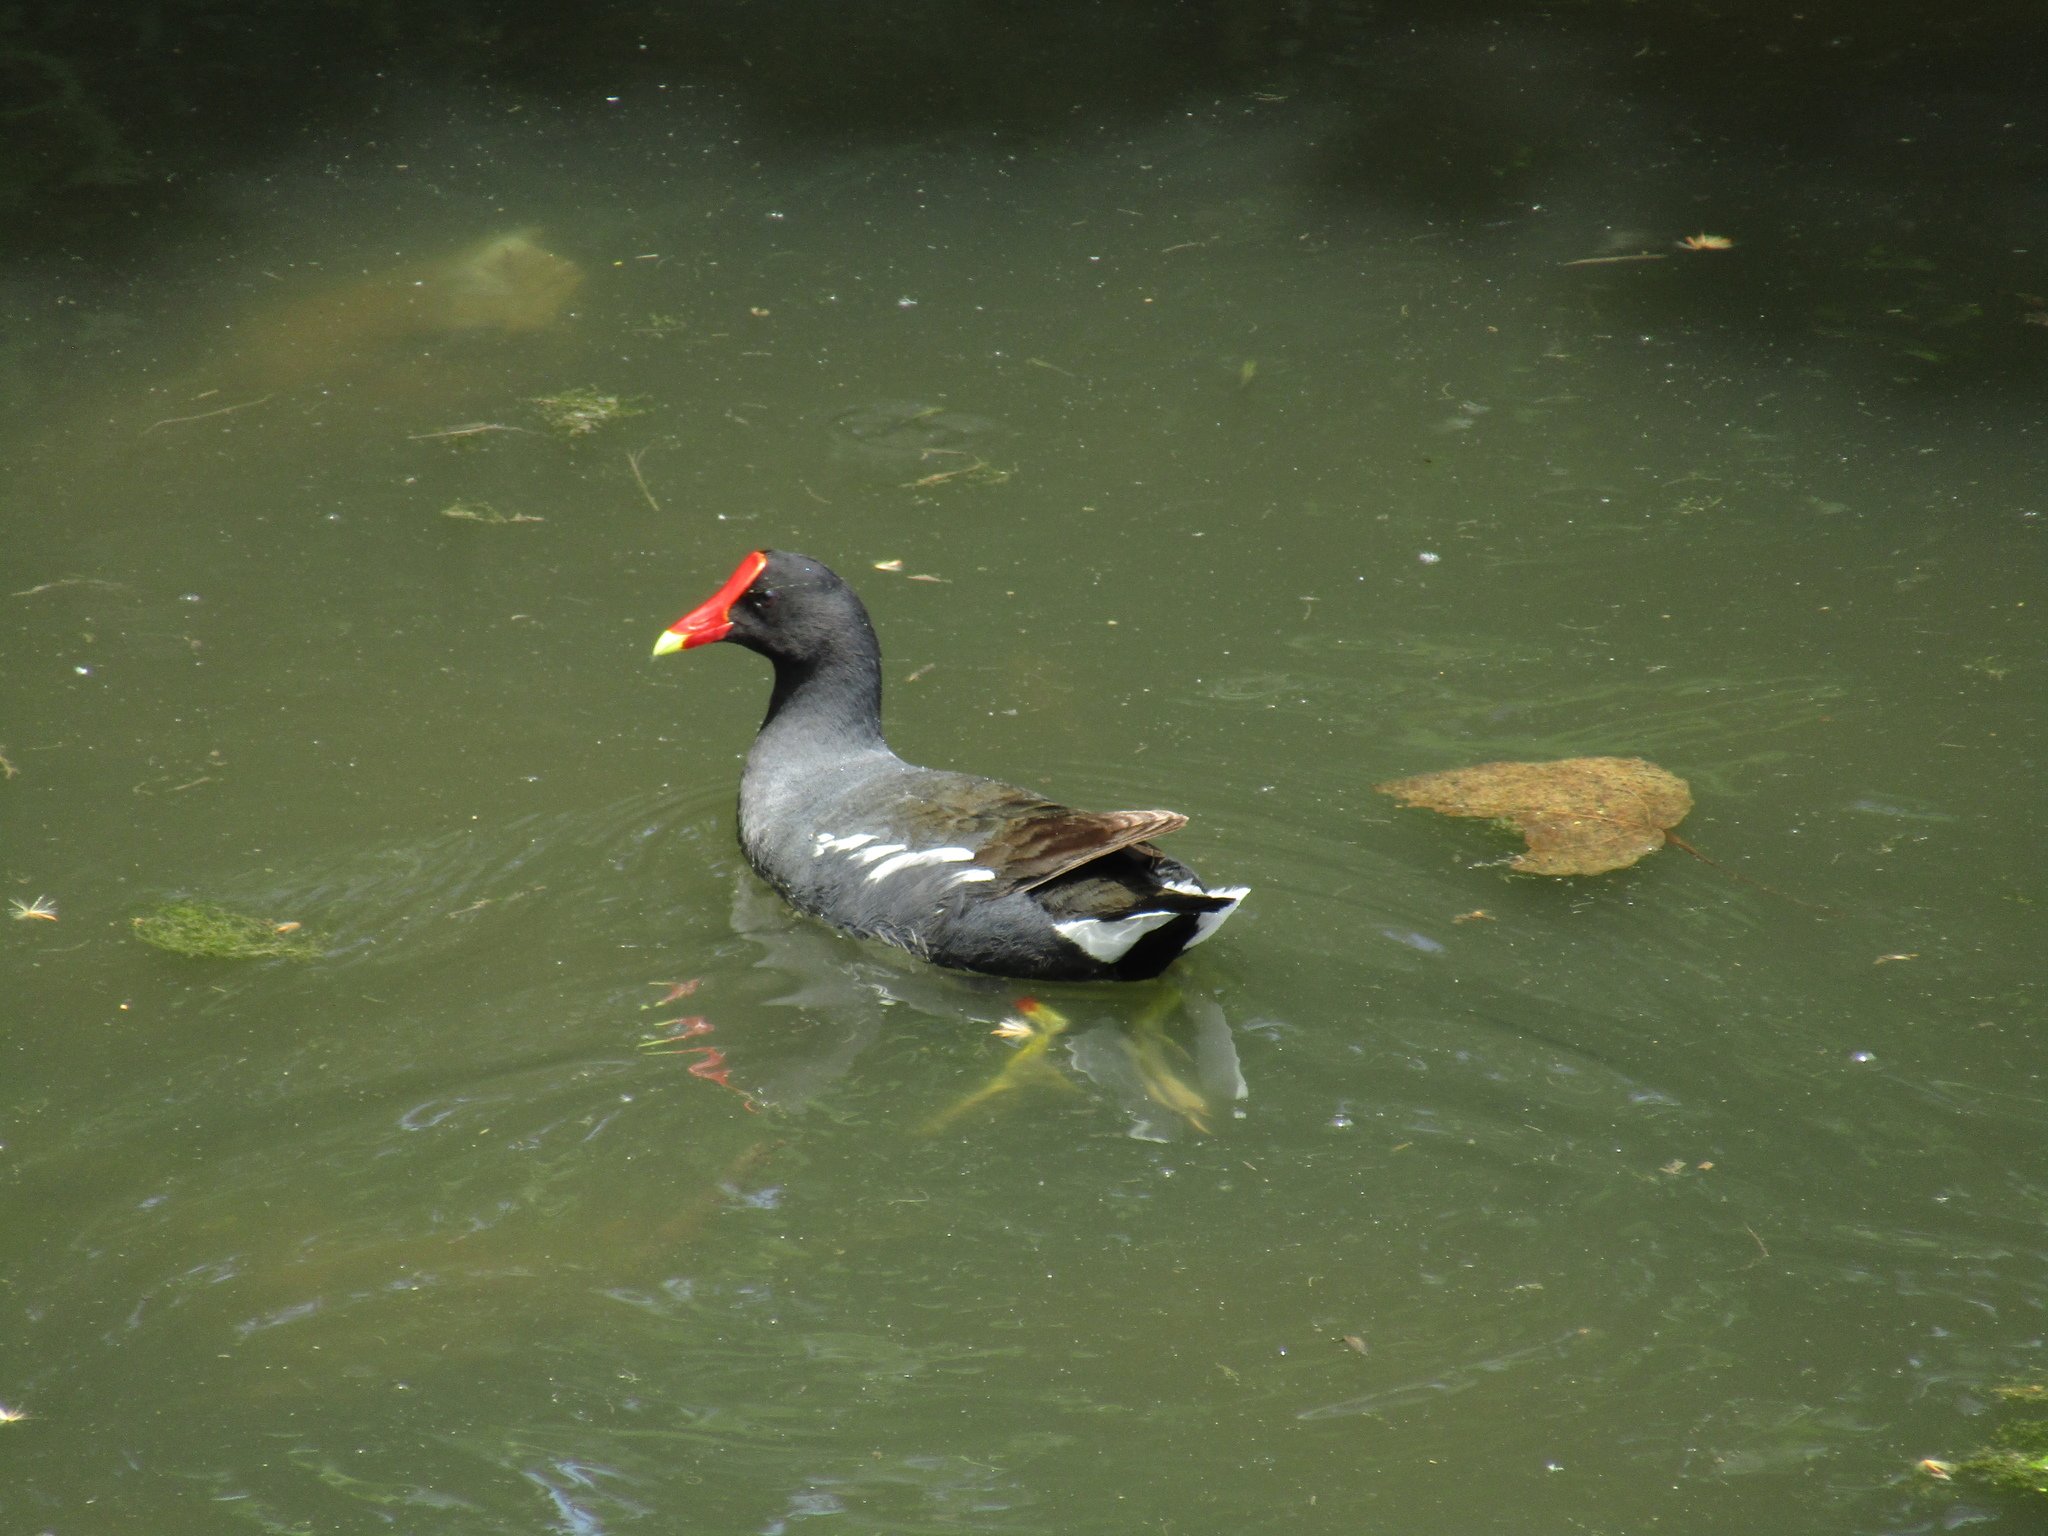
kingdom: Animalia
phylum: Chordata
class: Aves
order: Gruiformes
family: Rallidae
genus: Gallinula
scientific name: Gallinula chloropus
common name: Common moorhen
